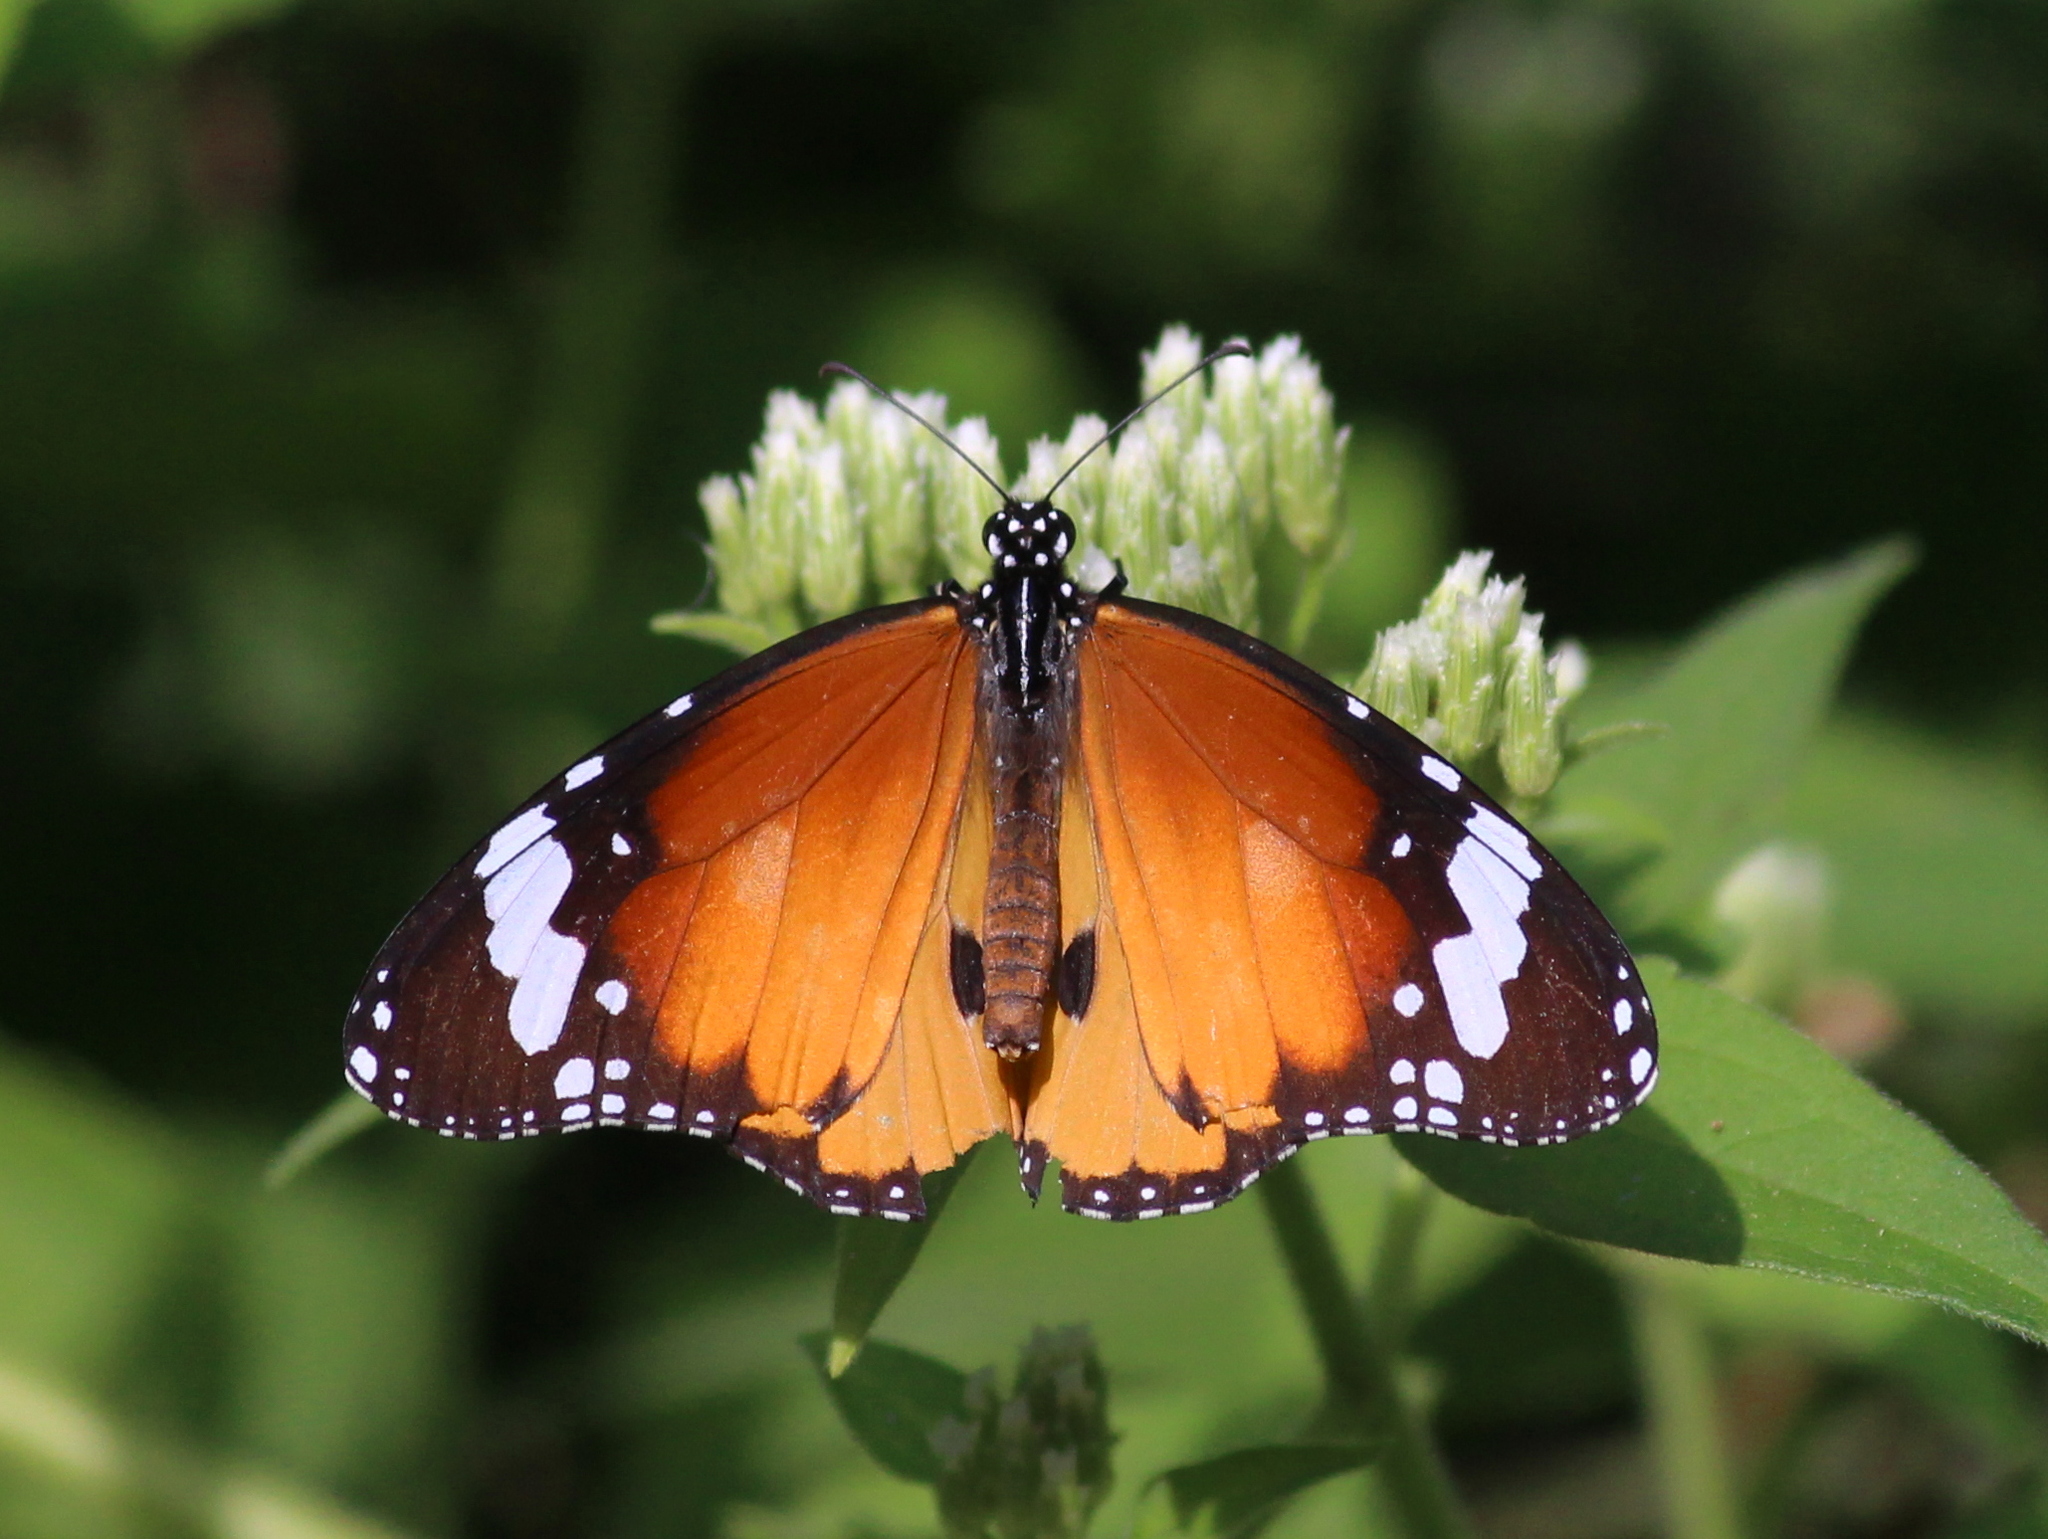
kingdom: Animalia
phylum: Arthropoda
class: Insecta
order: Lepidoptera
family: Nymphalidae
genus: Danaus
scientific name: Danaus chrysippus
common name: Plain tiger
